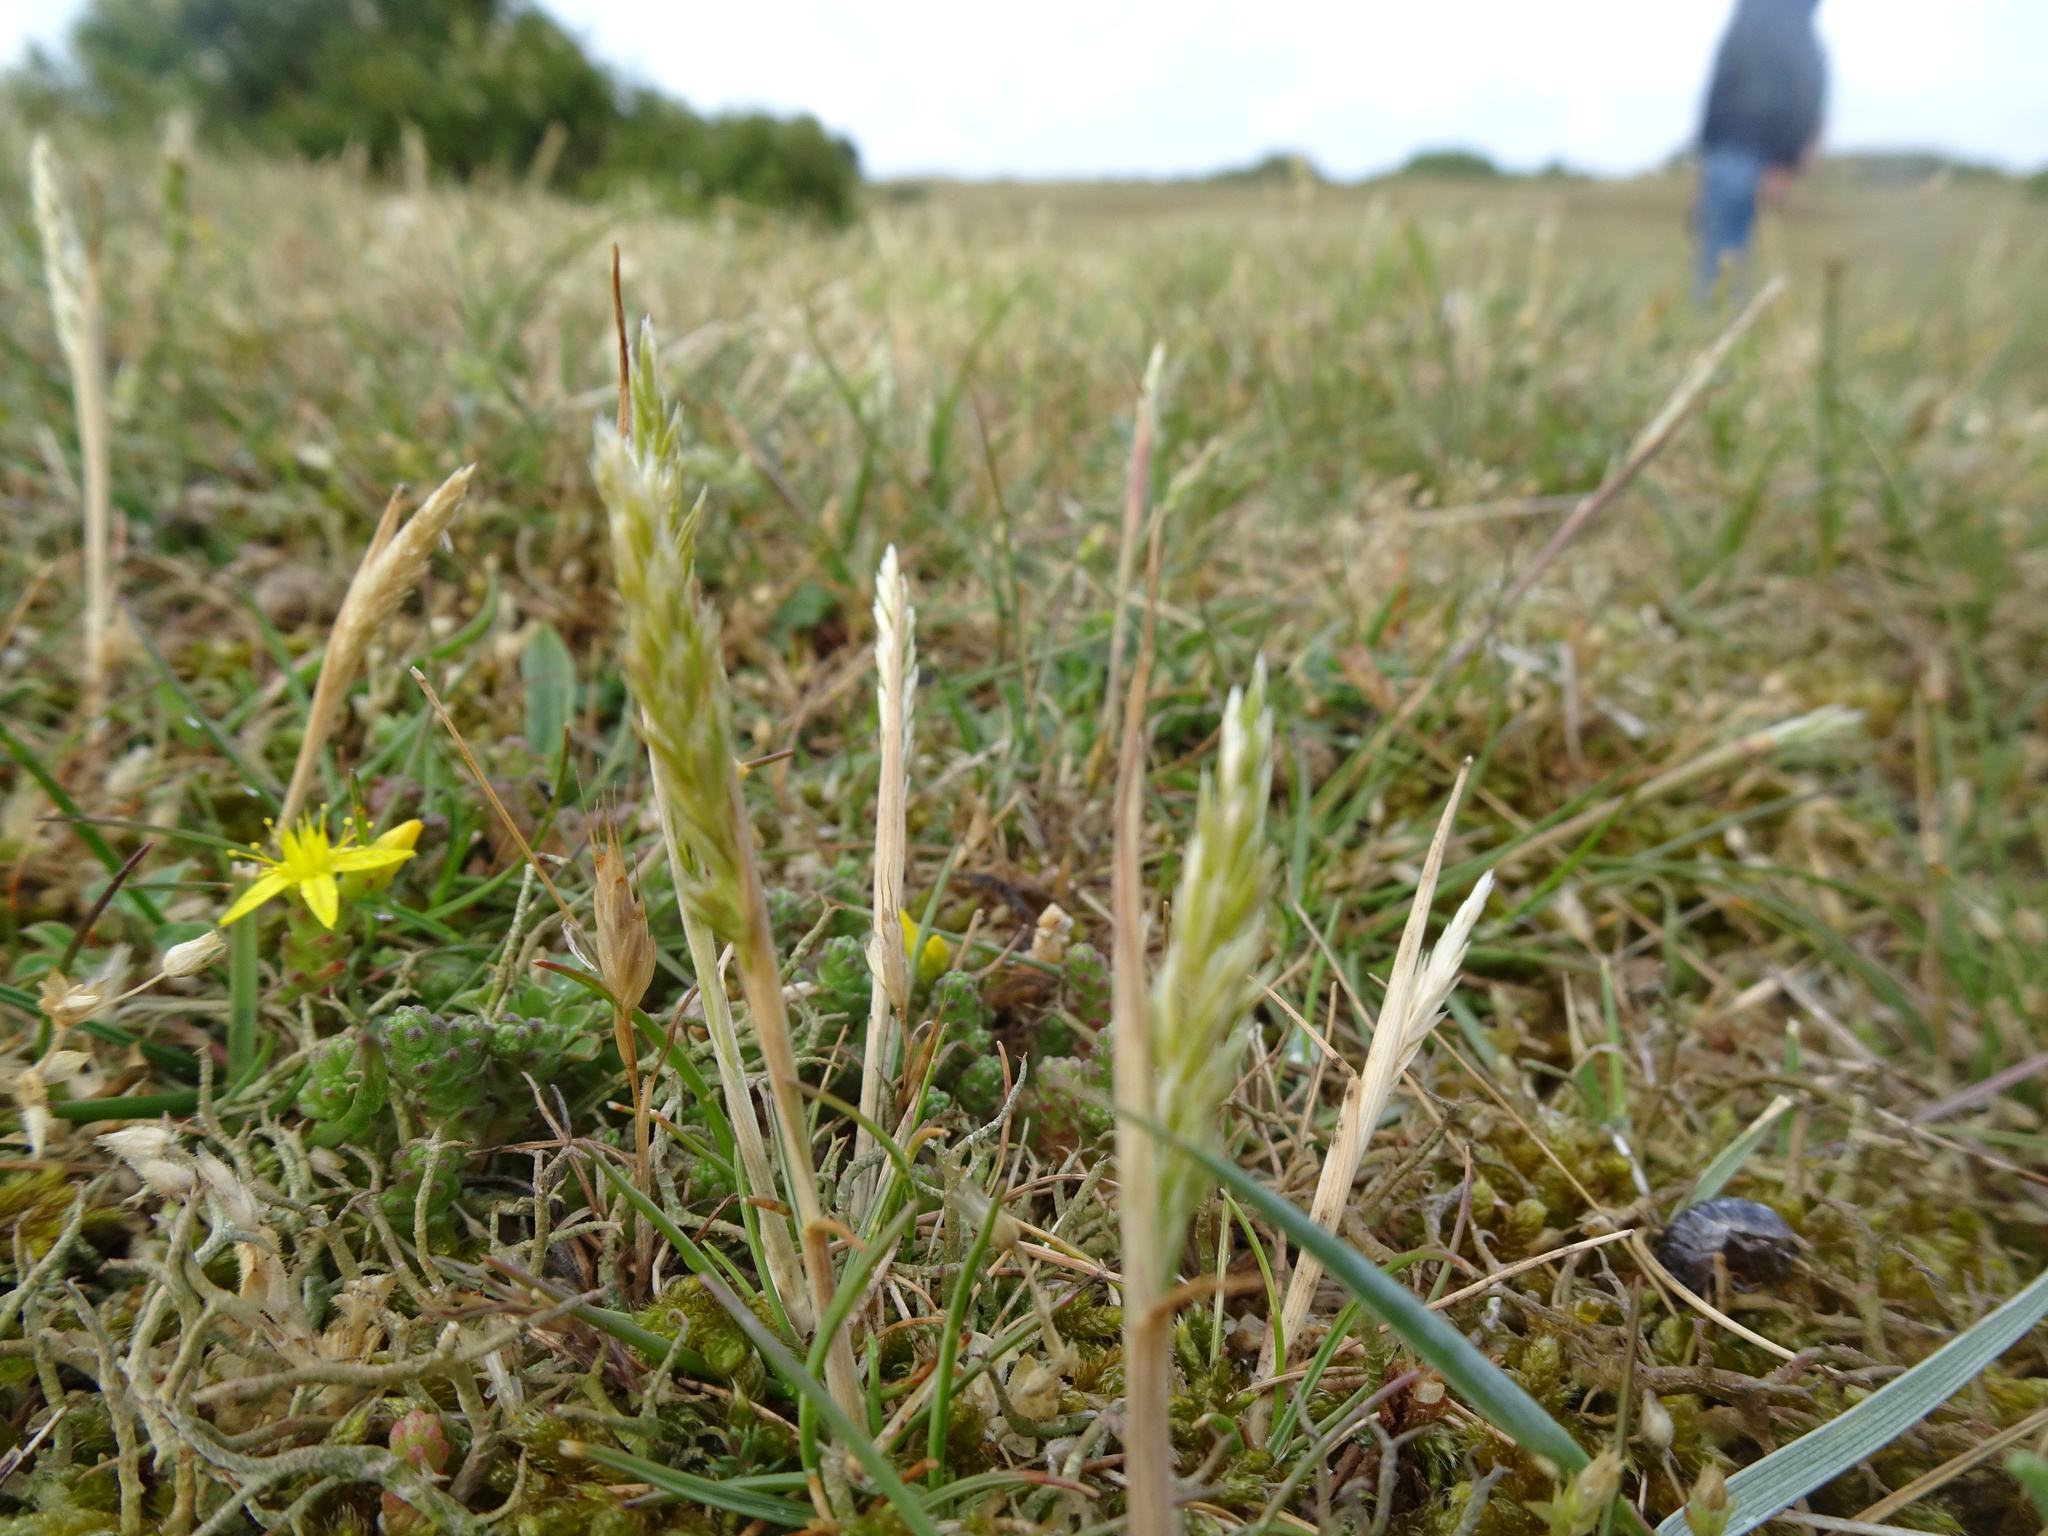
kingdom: Plantae
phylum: Tracheophyta
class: Liliopsida
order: Poales
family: Poaceae
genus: Koeleria
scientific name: Koeleria macrantha
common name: Crested hair-grass
